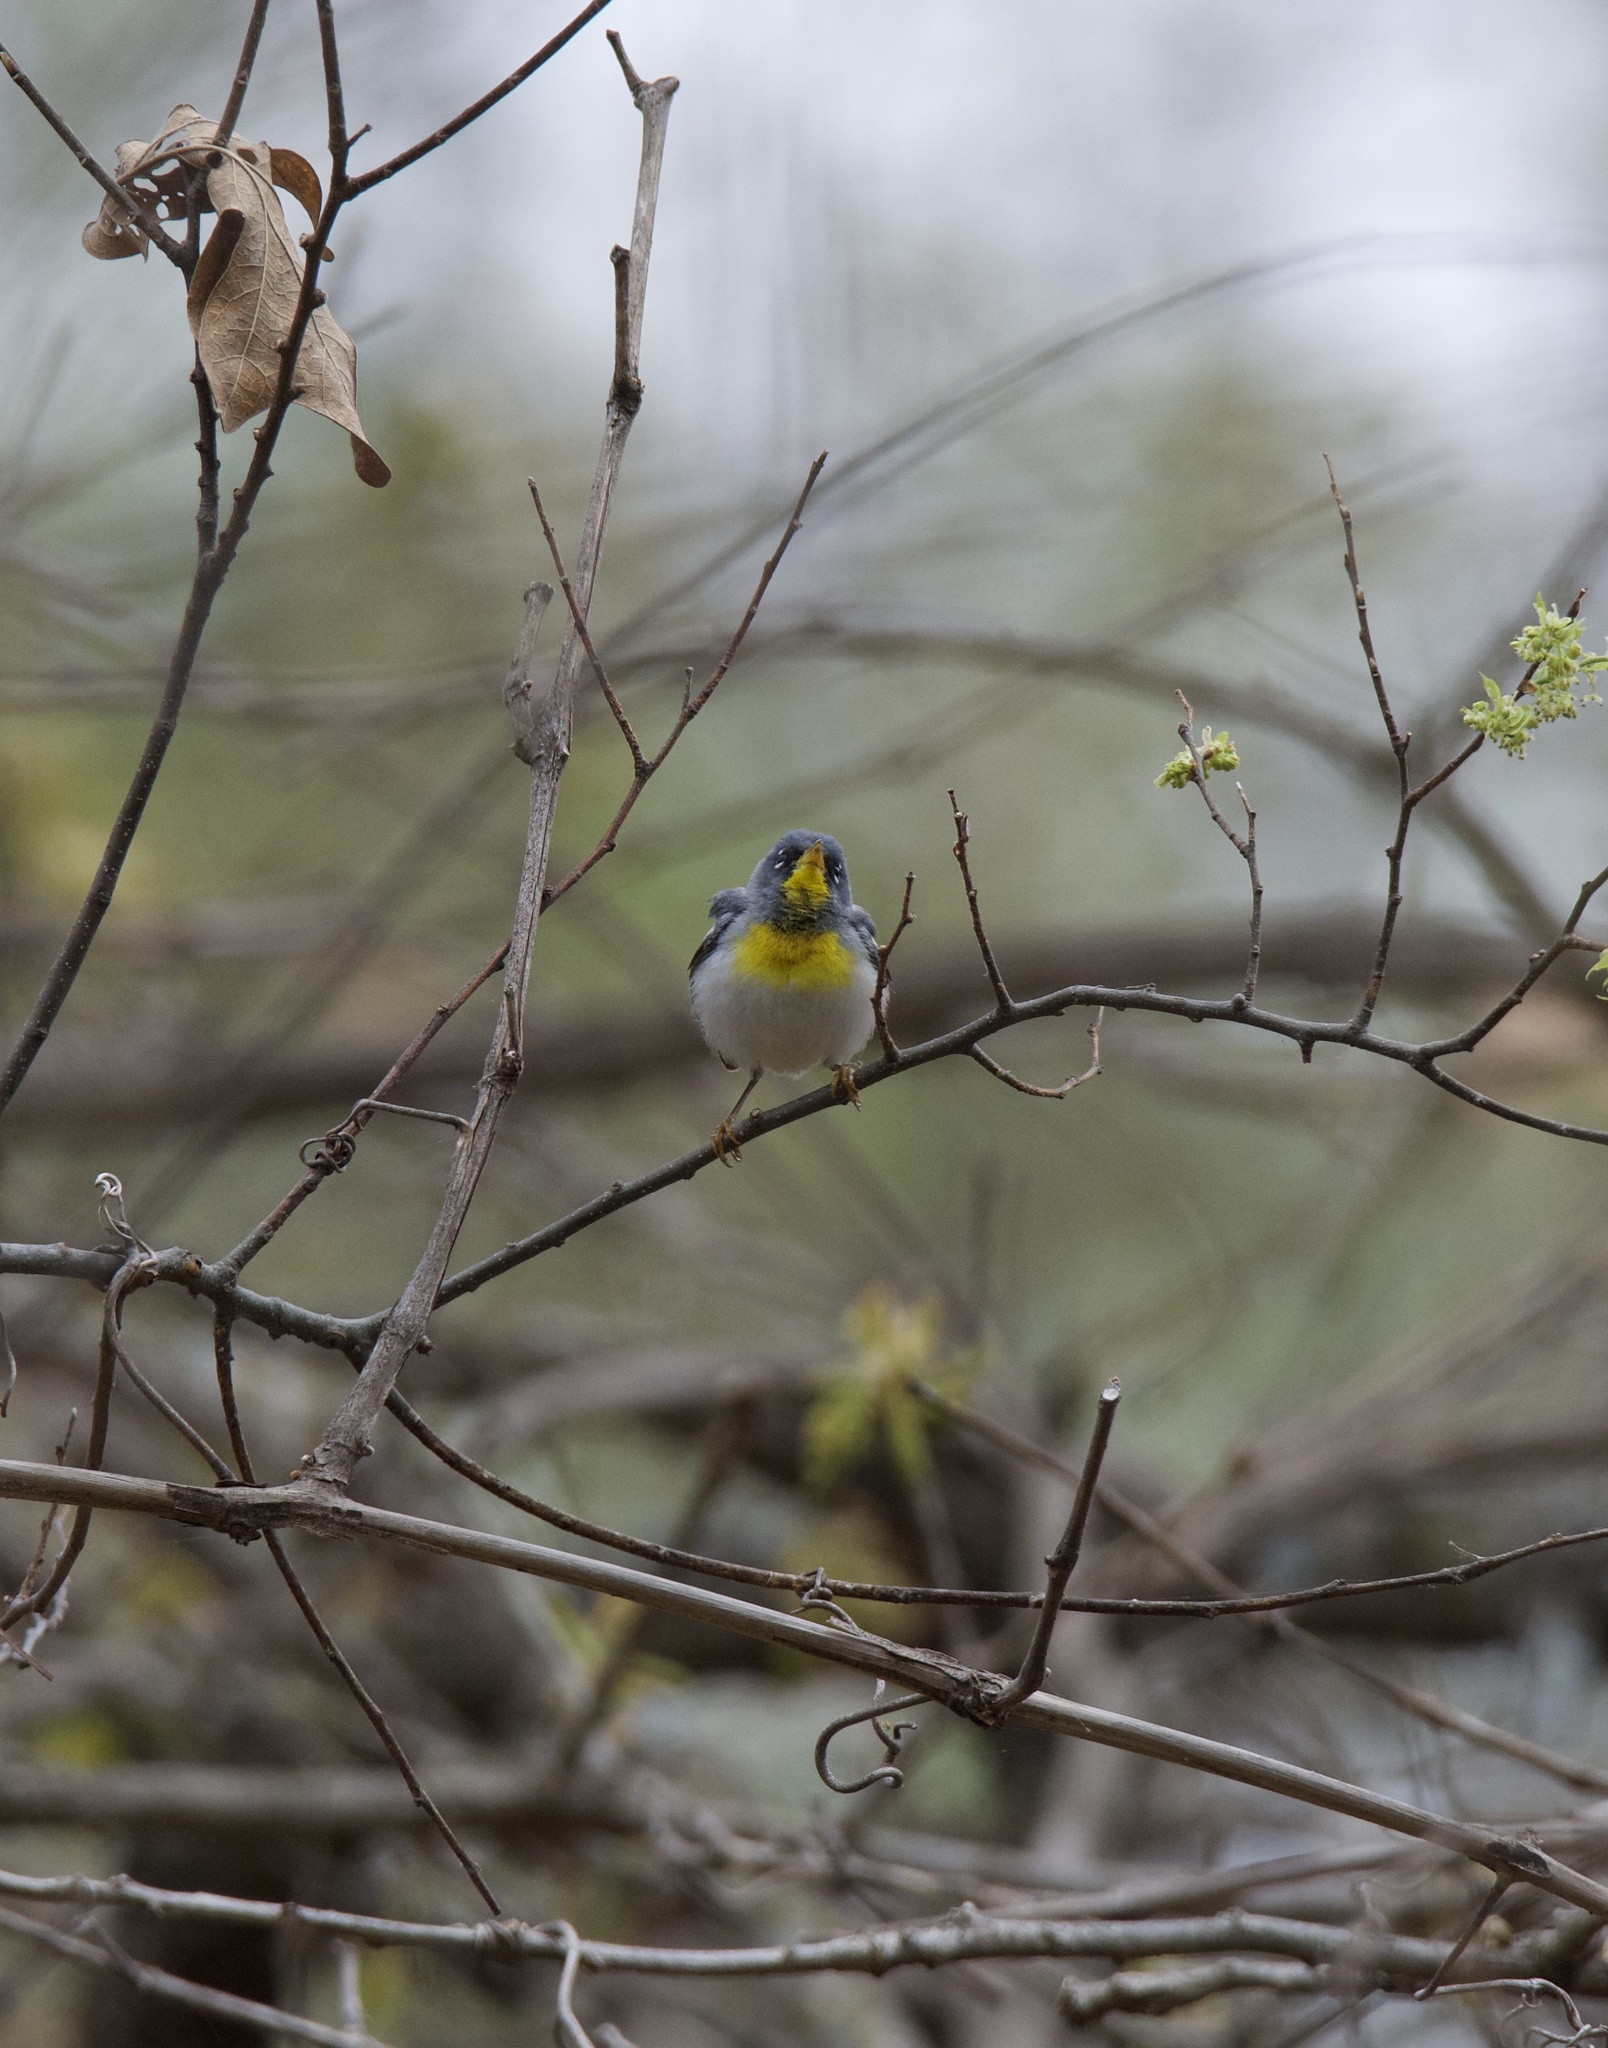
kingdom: Animalia
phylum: Chordata
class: Aves
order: Passeriformes
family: Parulidae
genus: Setophaga
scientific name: Setophaga americana
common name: Northern parula
